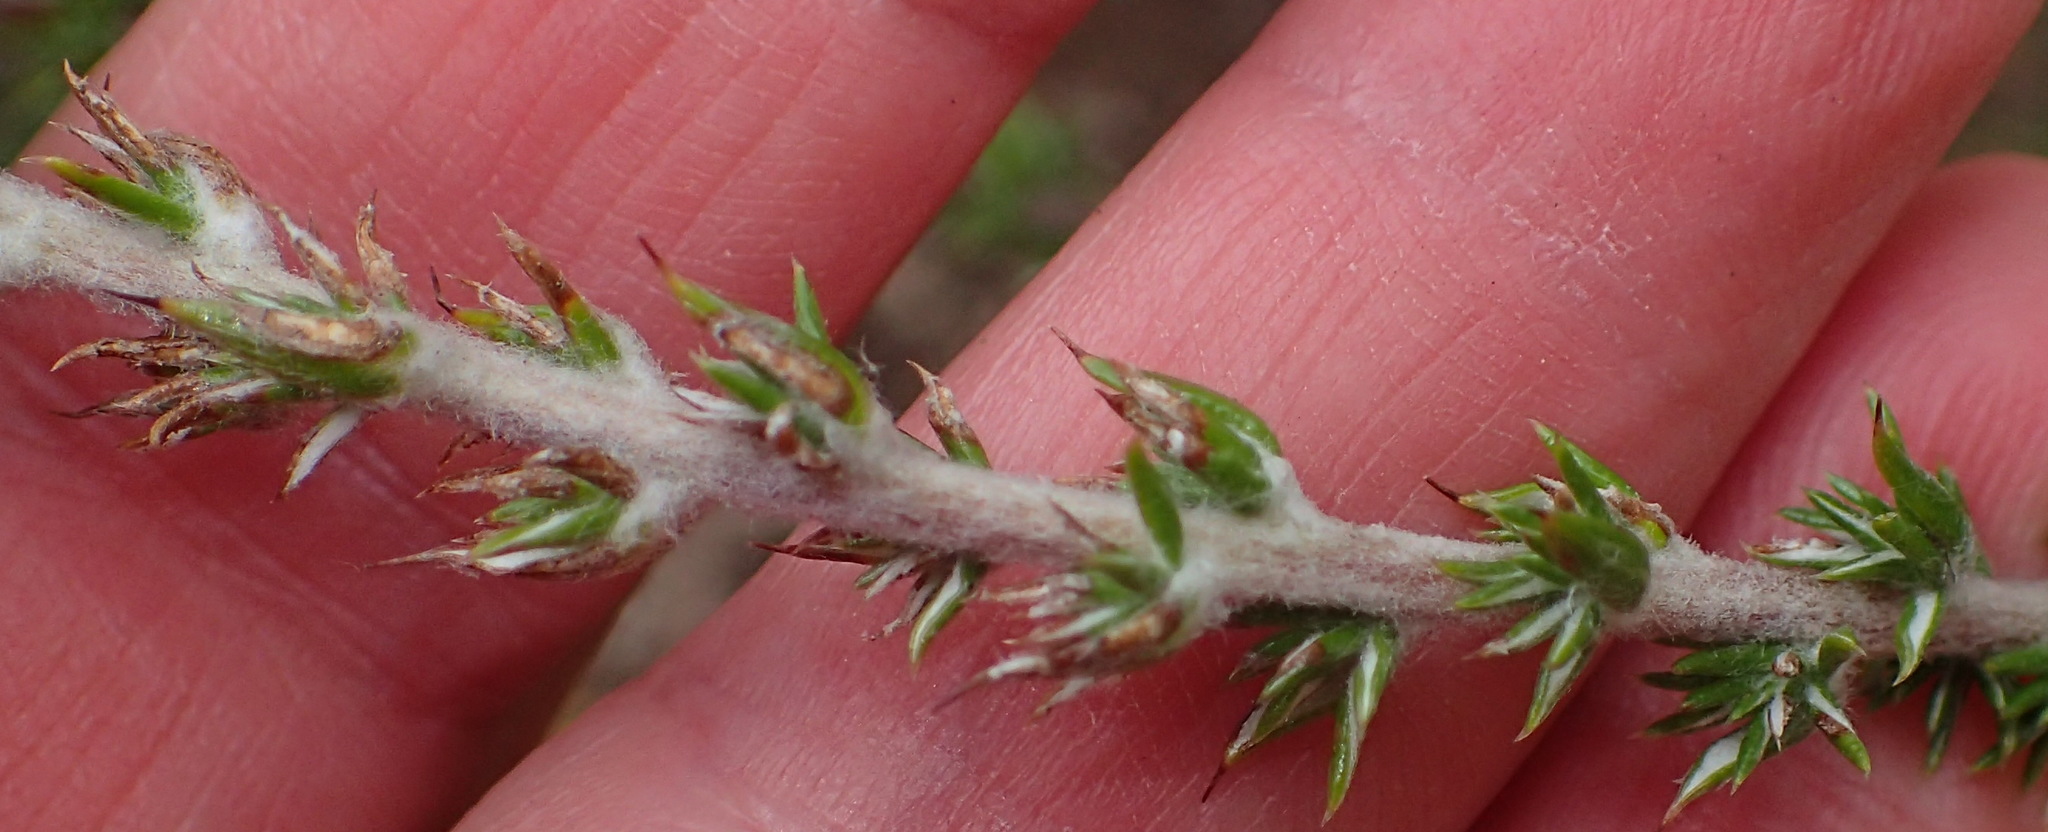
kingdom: Plantae
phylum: Tracheophyta
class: Magnoliopsida
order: Asterales
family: Asteraceae
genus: Metalasia
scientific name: Metalasia pungens
